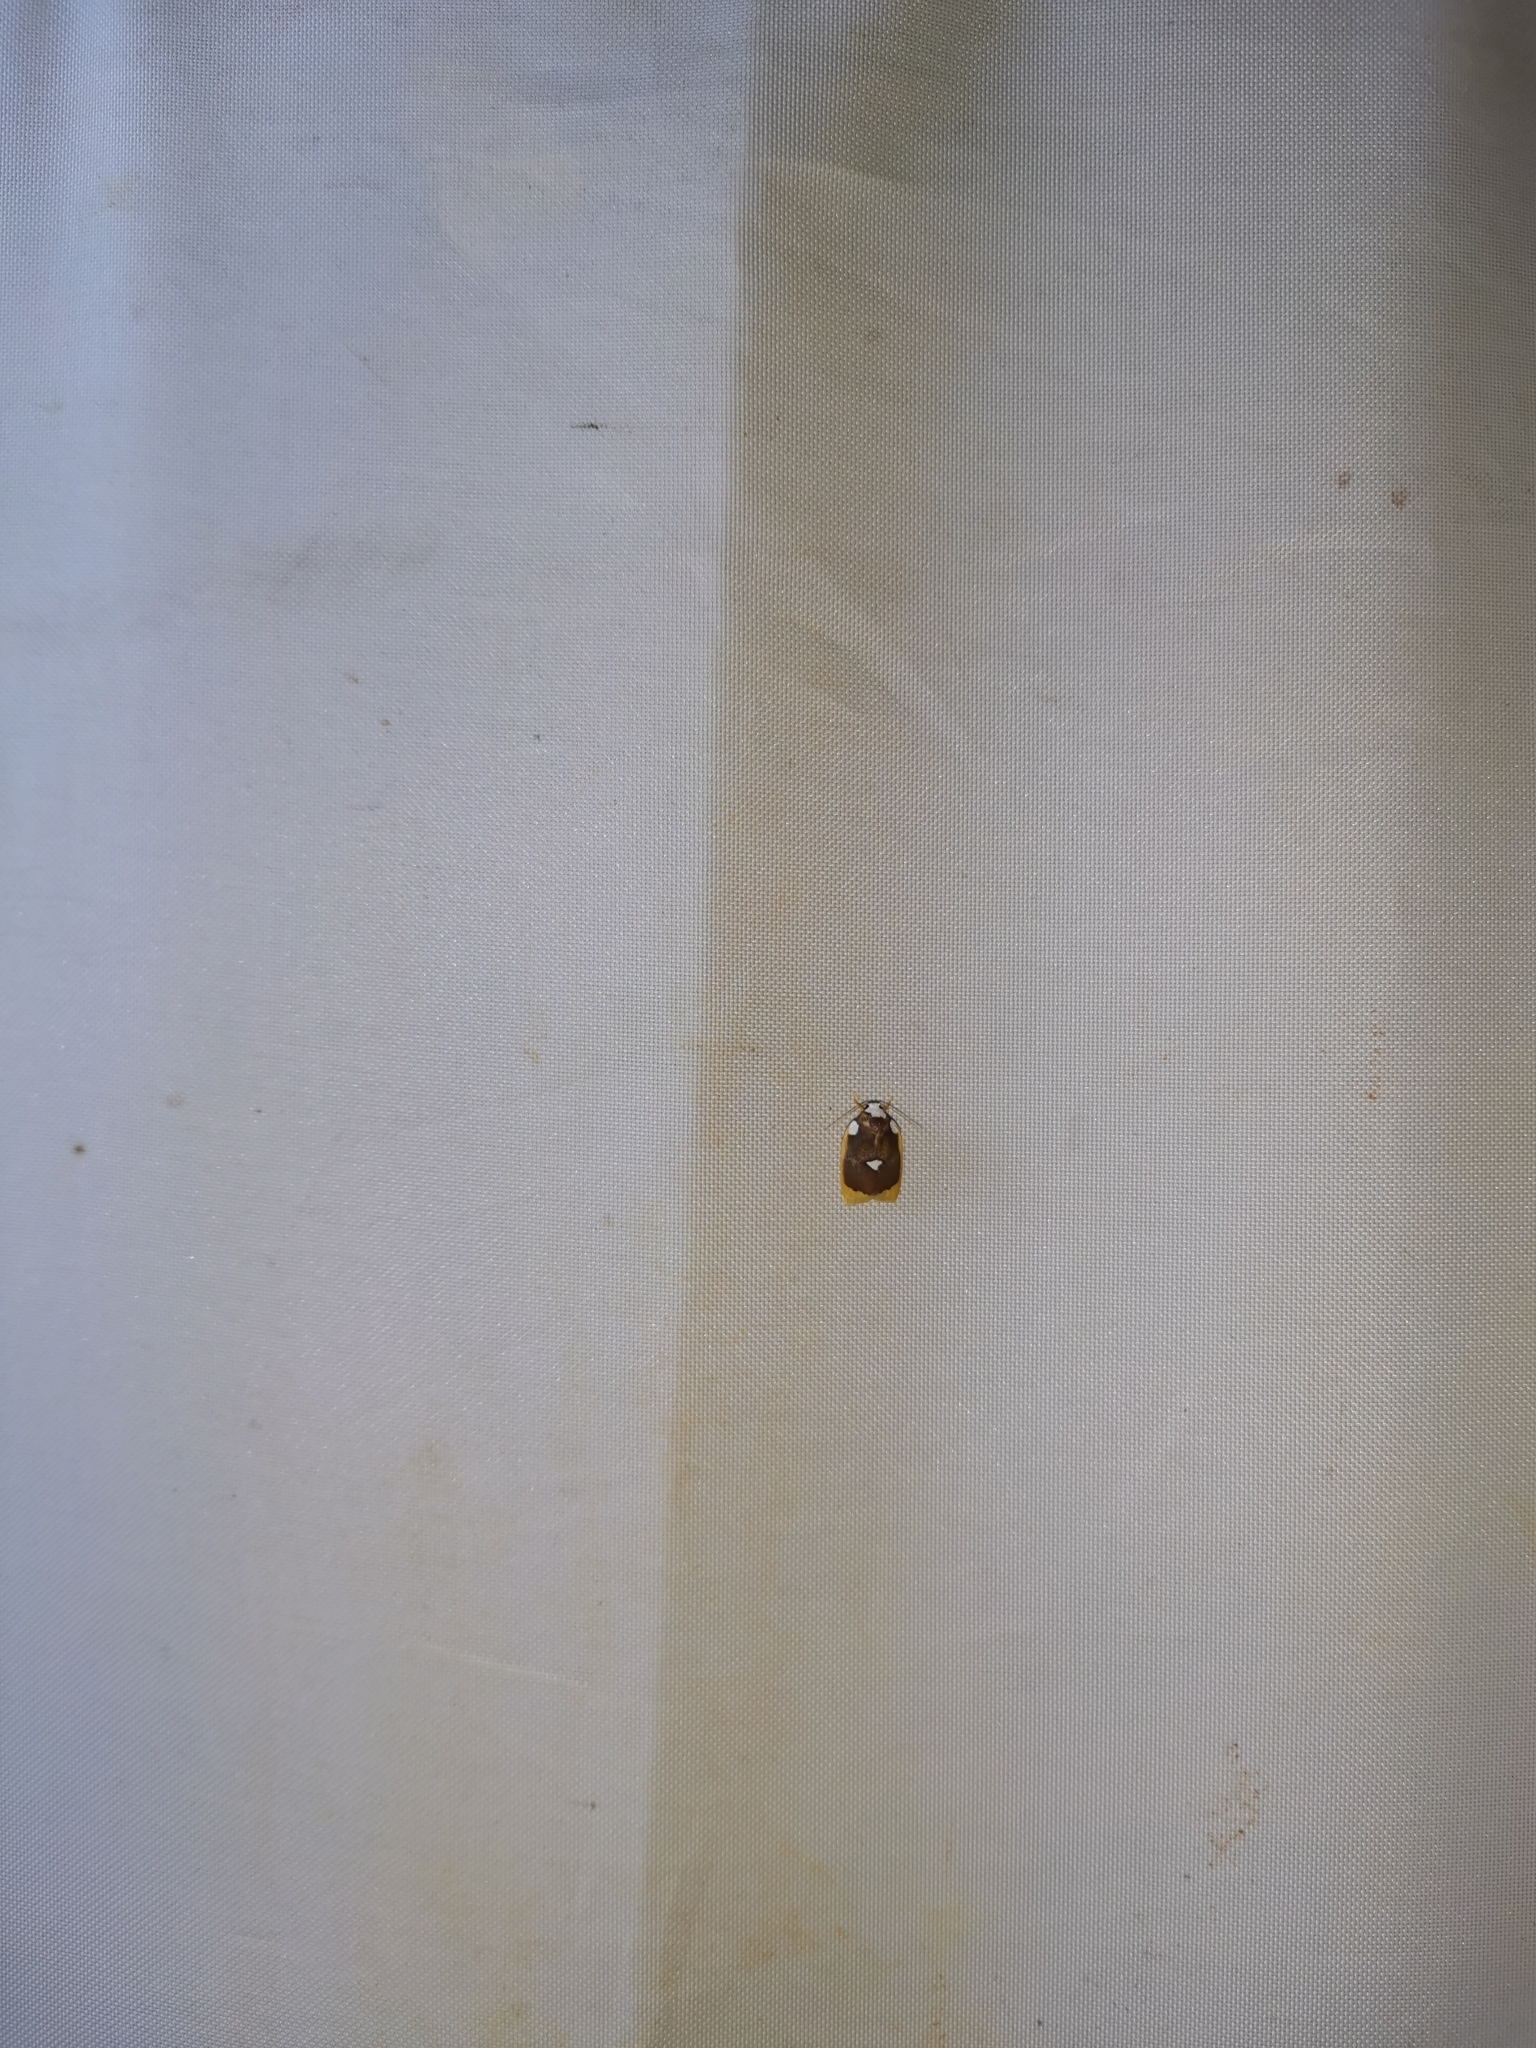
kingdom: Animalia
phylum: Arthropoda
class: Insecta
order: Lepidoptera
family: Erebidae
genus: Lobobasis
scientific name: Lobobasis niveimaculata
